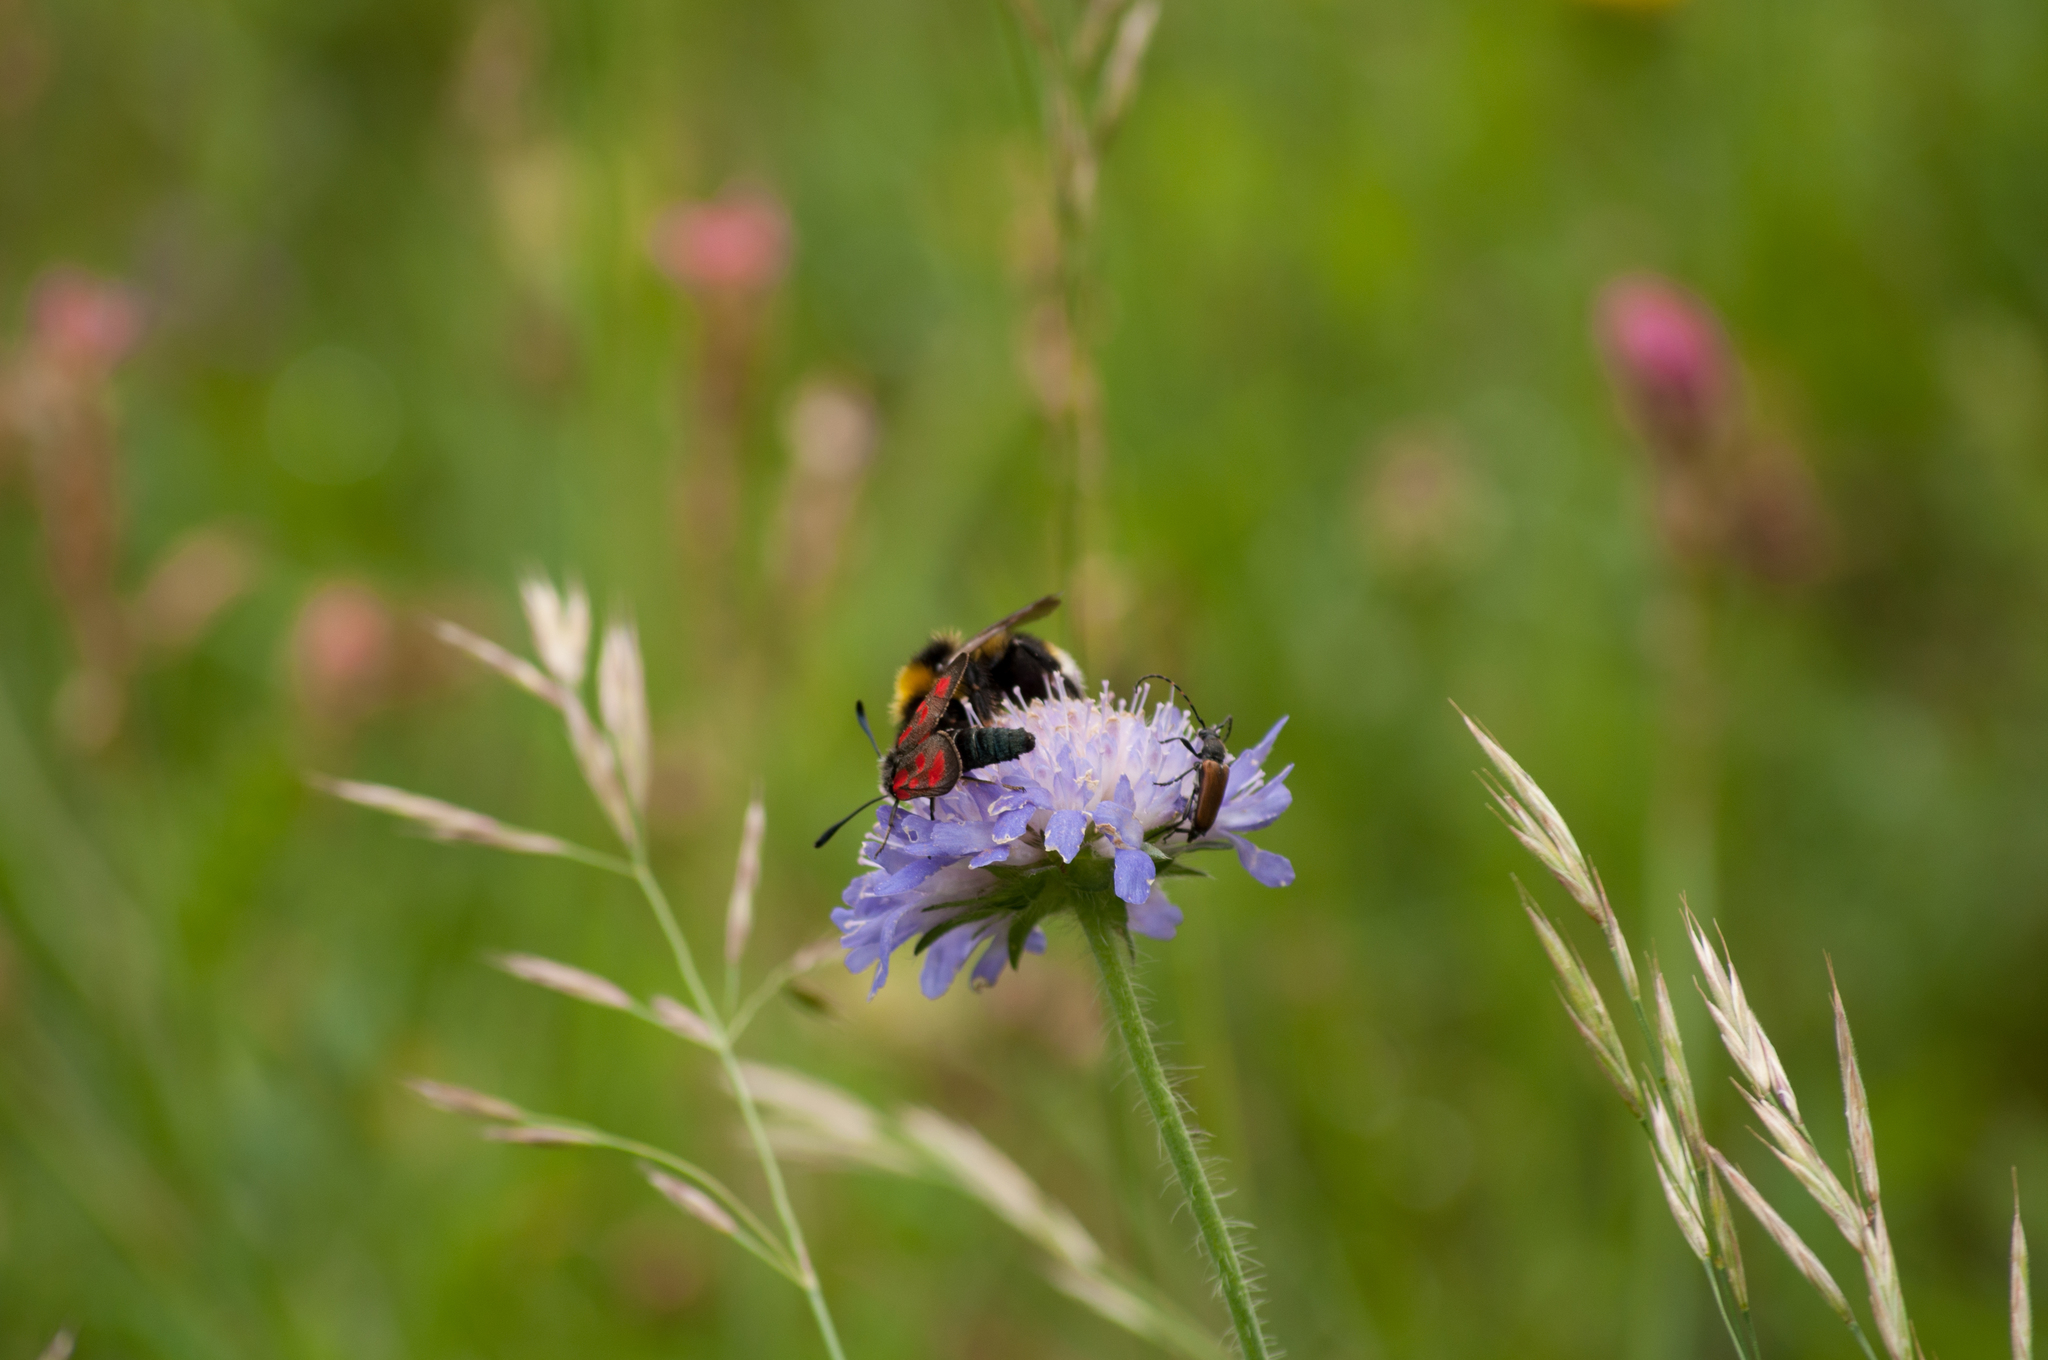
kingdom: Animalia
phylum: Arthropoda
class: Insecta
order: Lepidoptera
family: Zygaenidae
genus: Zygaena
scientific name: Zygaena loti
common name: Slender scotch burnet
